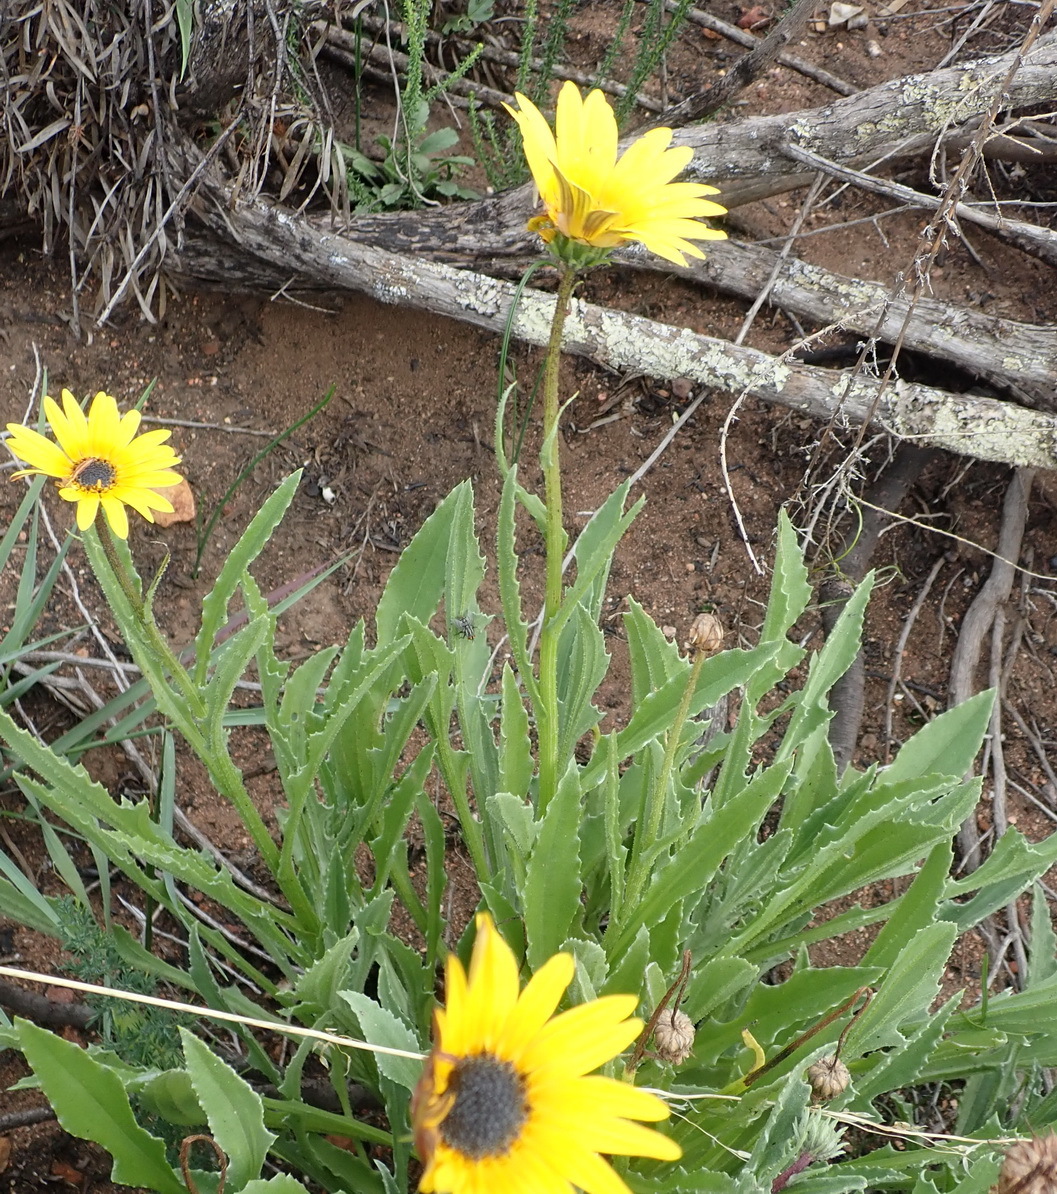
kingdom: Plantae
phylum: Tracheophyta
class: Magnoliopsida
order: Asterales
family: Asteraceae
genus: Arctotis
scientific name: Arctotis lanceolata
